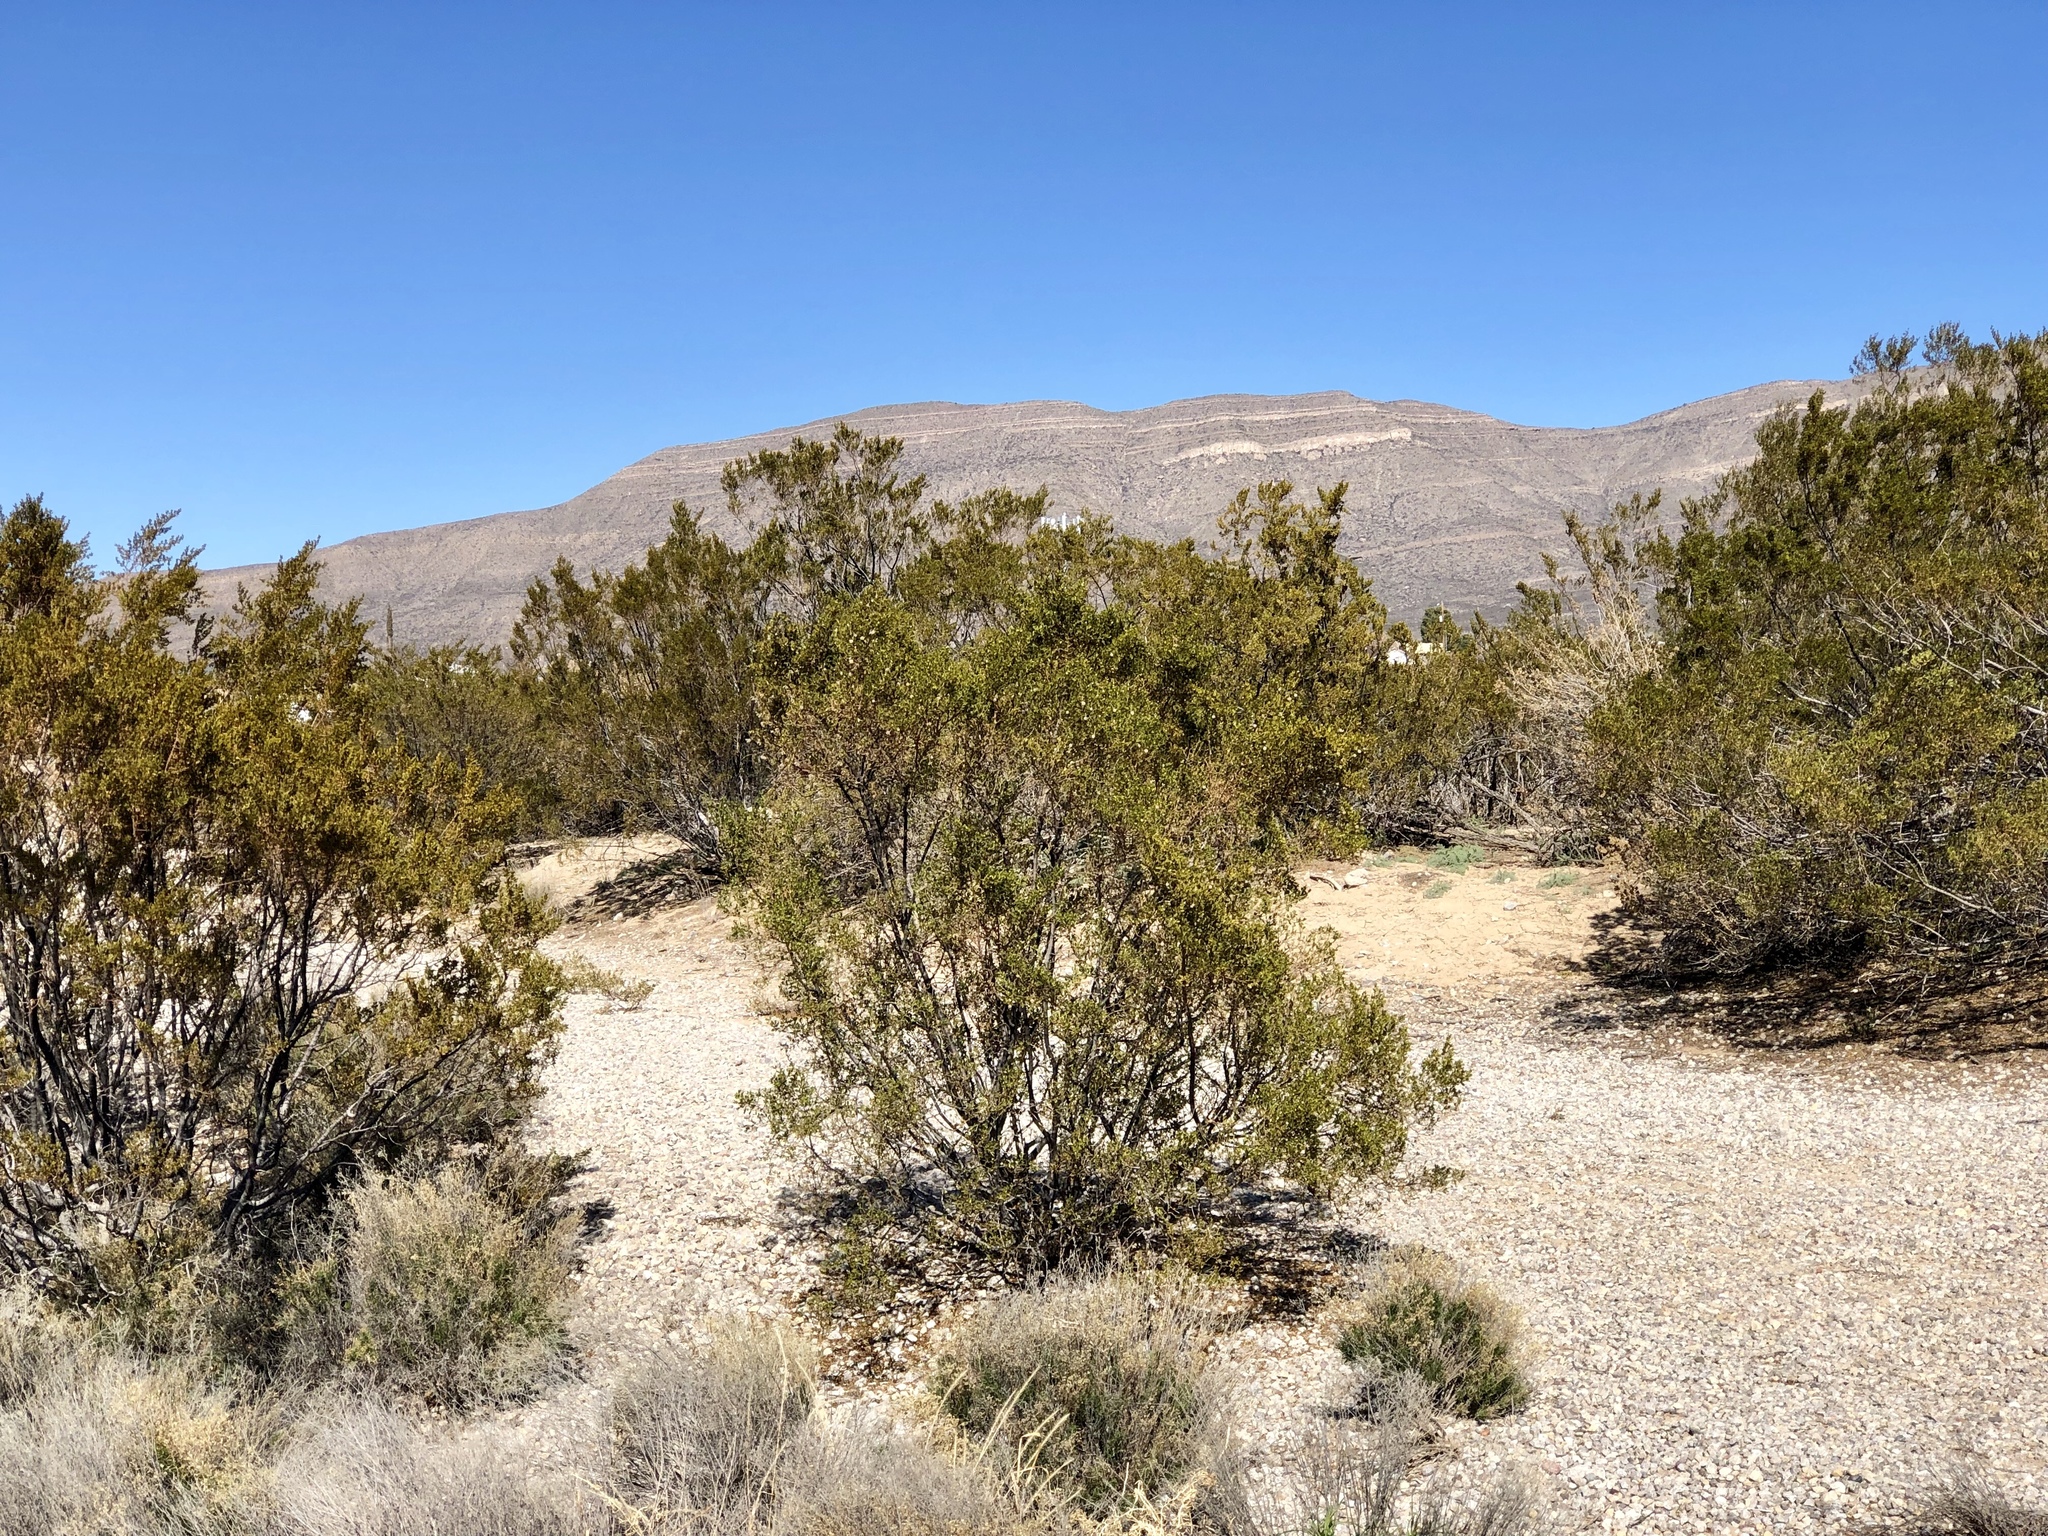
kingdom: Plantae
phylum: Tracheophyta
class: Magnoliopsida
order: Zygophyllales
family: Zygophyllaceae
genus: Larrea
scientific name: Larrea tridentata
